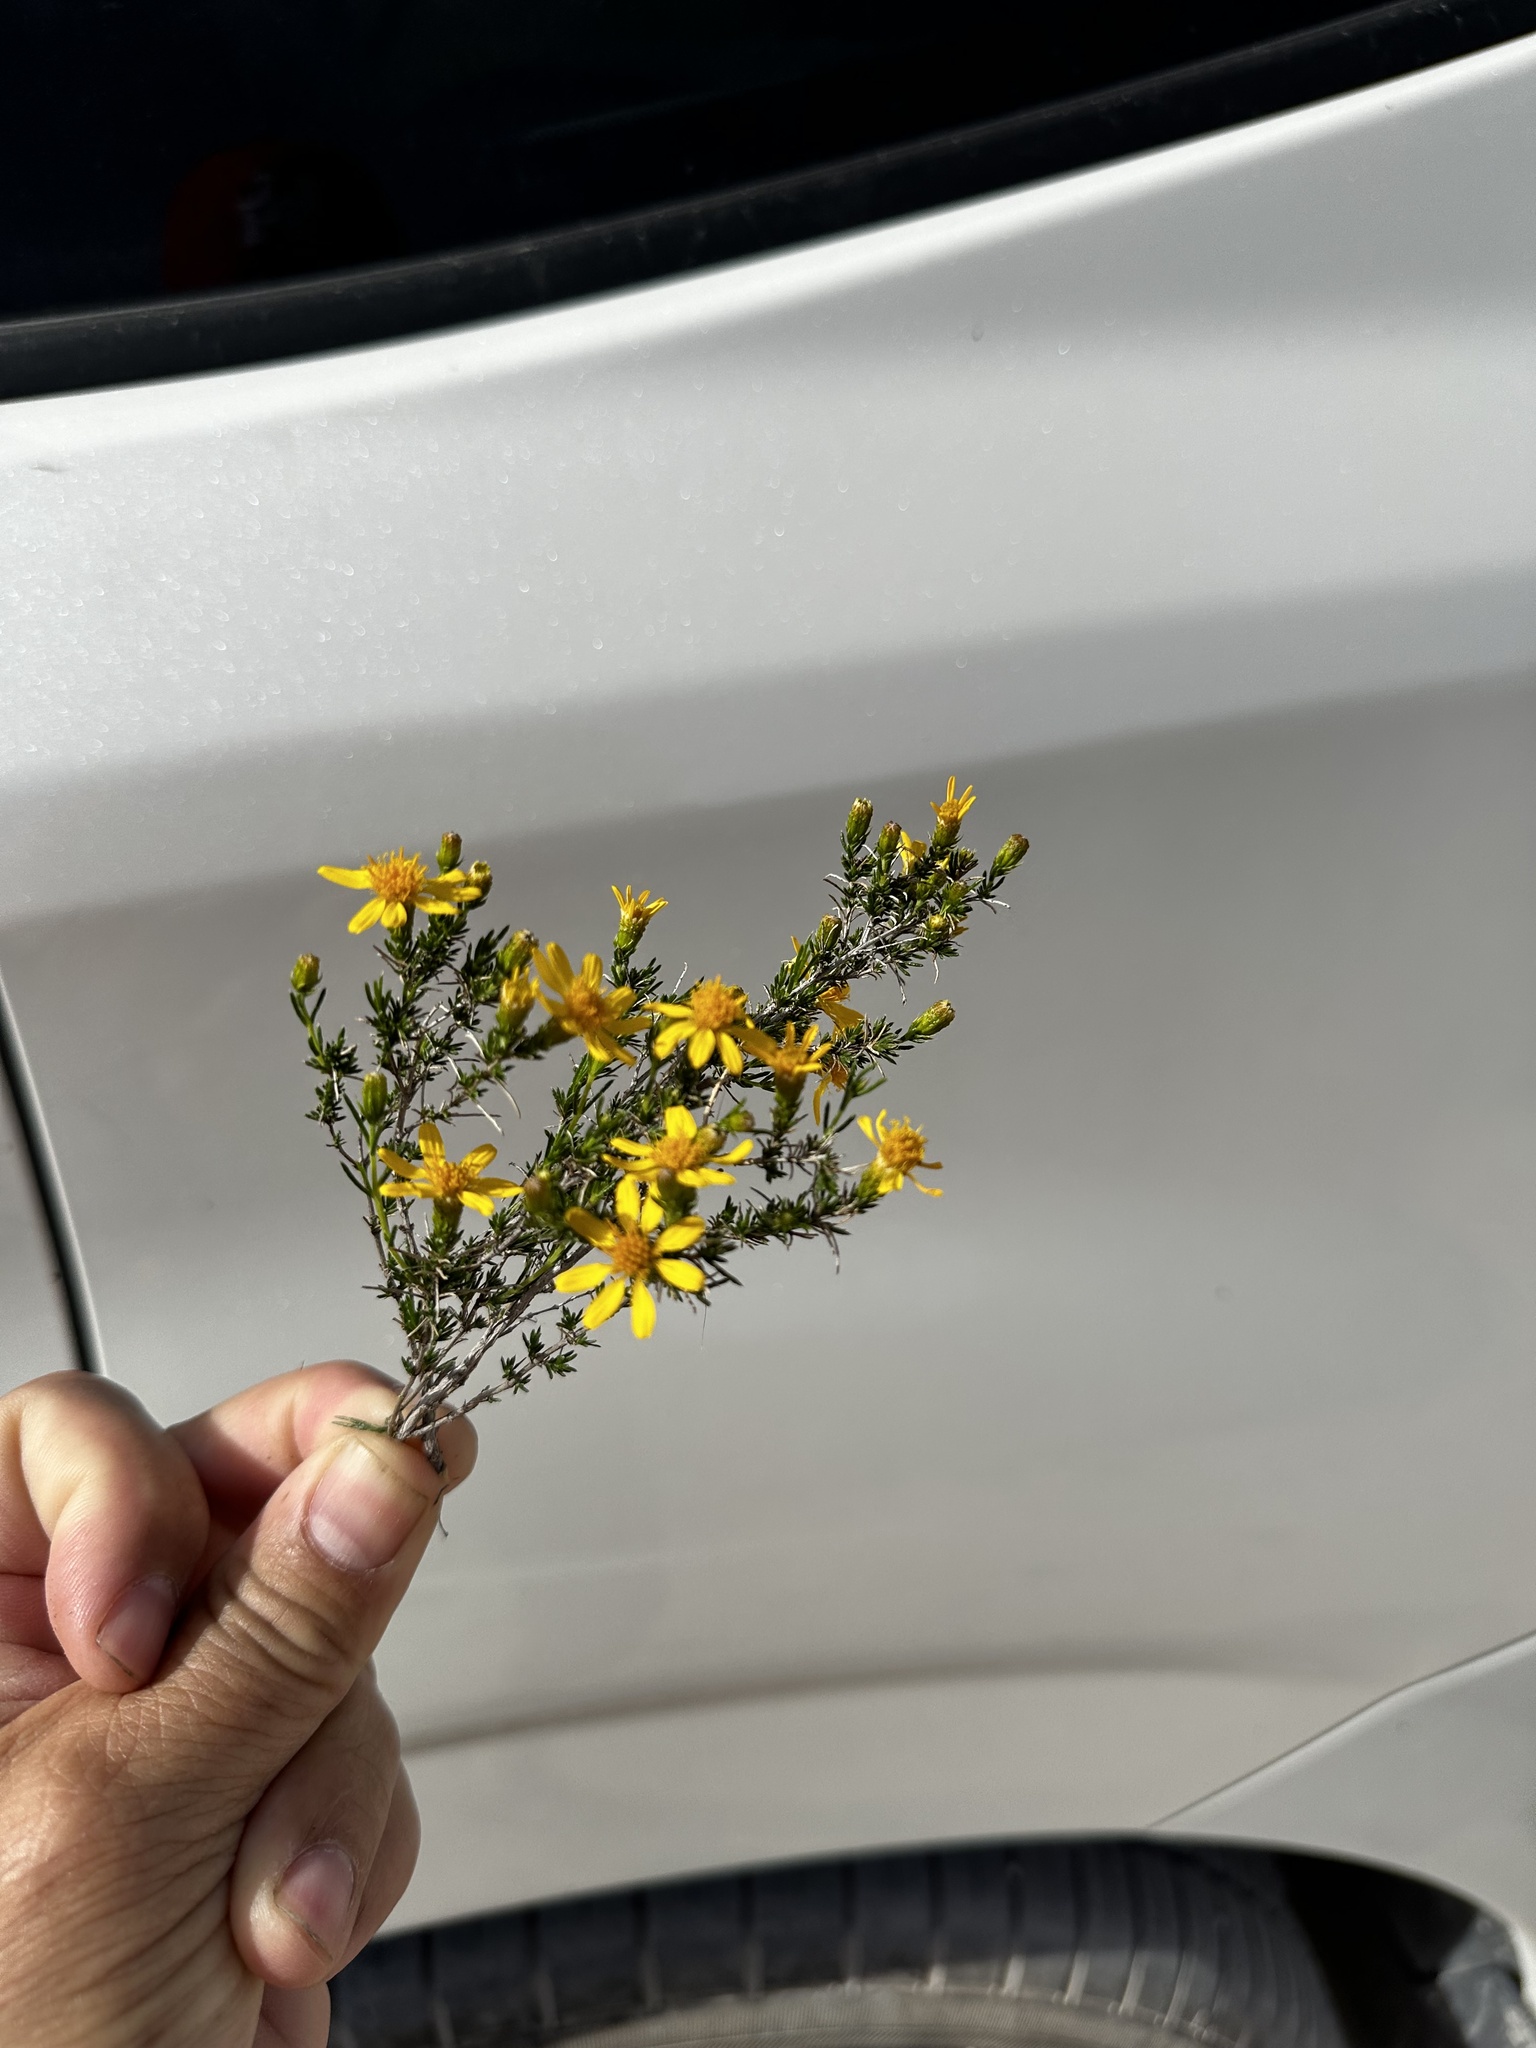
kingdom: Plantae
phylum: Tracheophyta
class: Magnoliopsida
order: Asterales
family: Asteraceae
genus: Thymophylla
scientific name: Thymophylla acerosa
